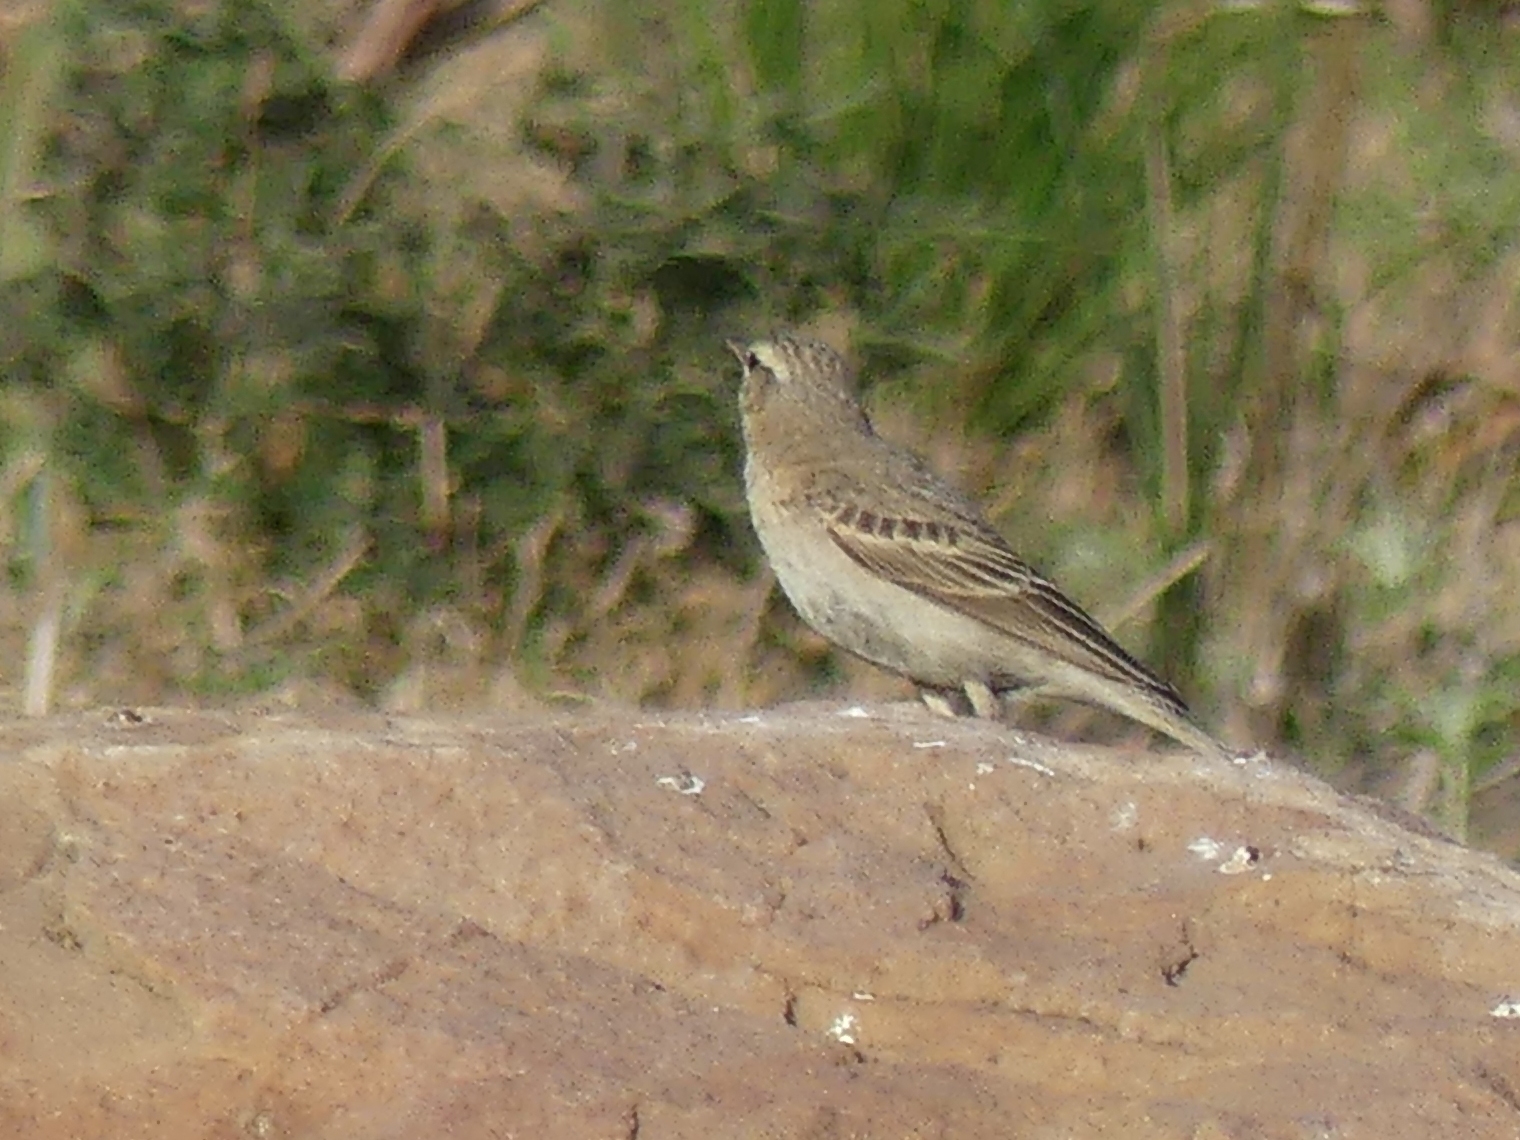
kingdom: Animalia
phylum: Chordata
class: Aves
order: Passeriformes
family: Motacillidae
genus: Anthus
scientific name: Anthus campestris
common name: Tawny pipit
